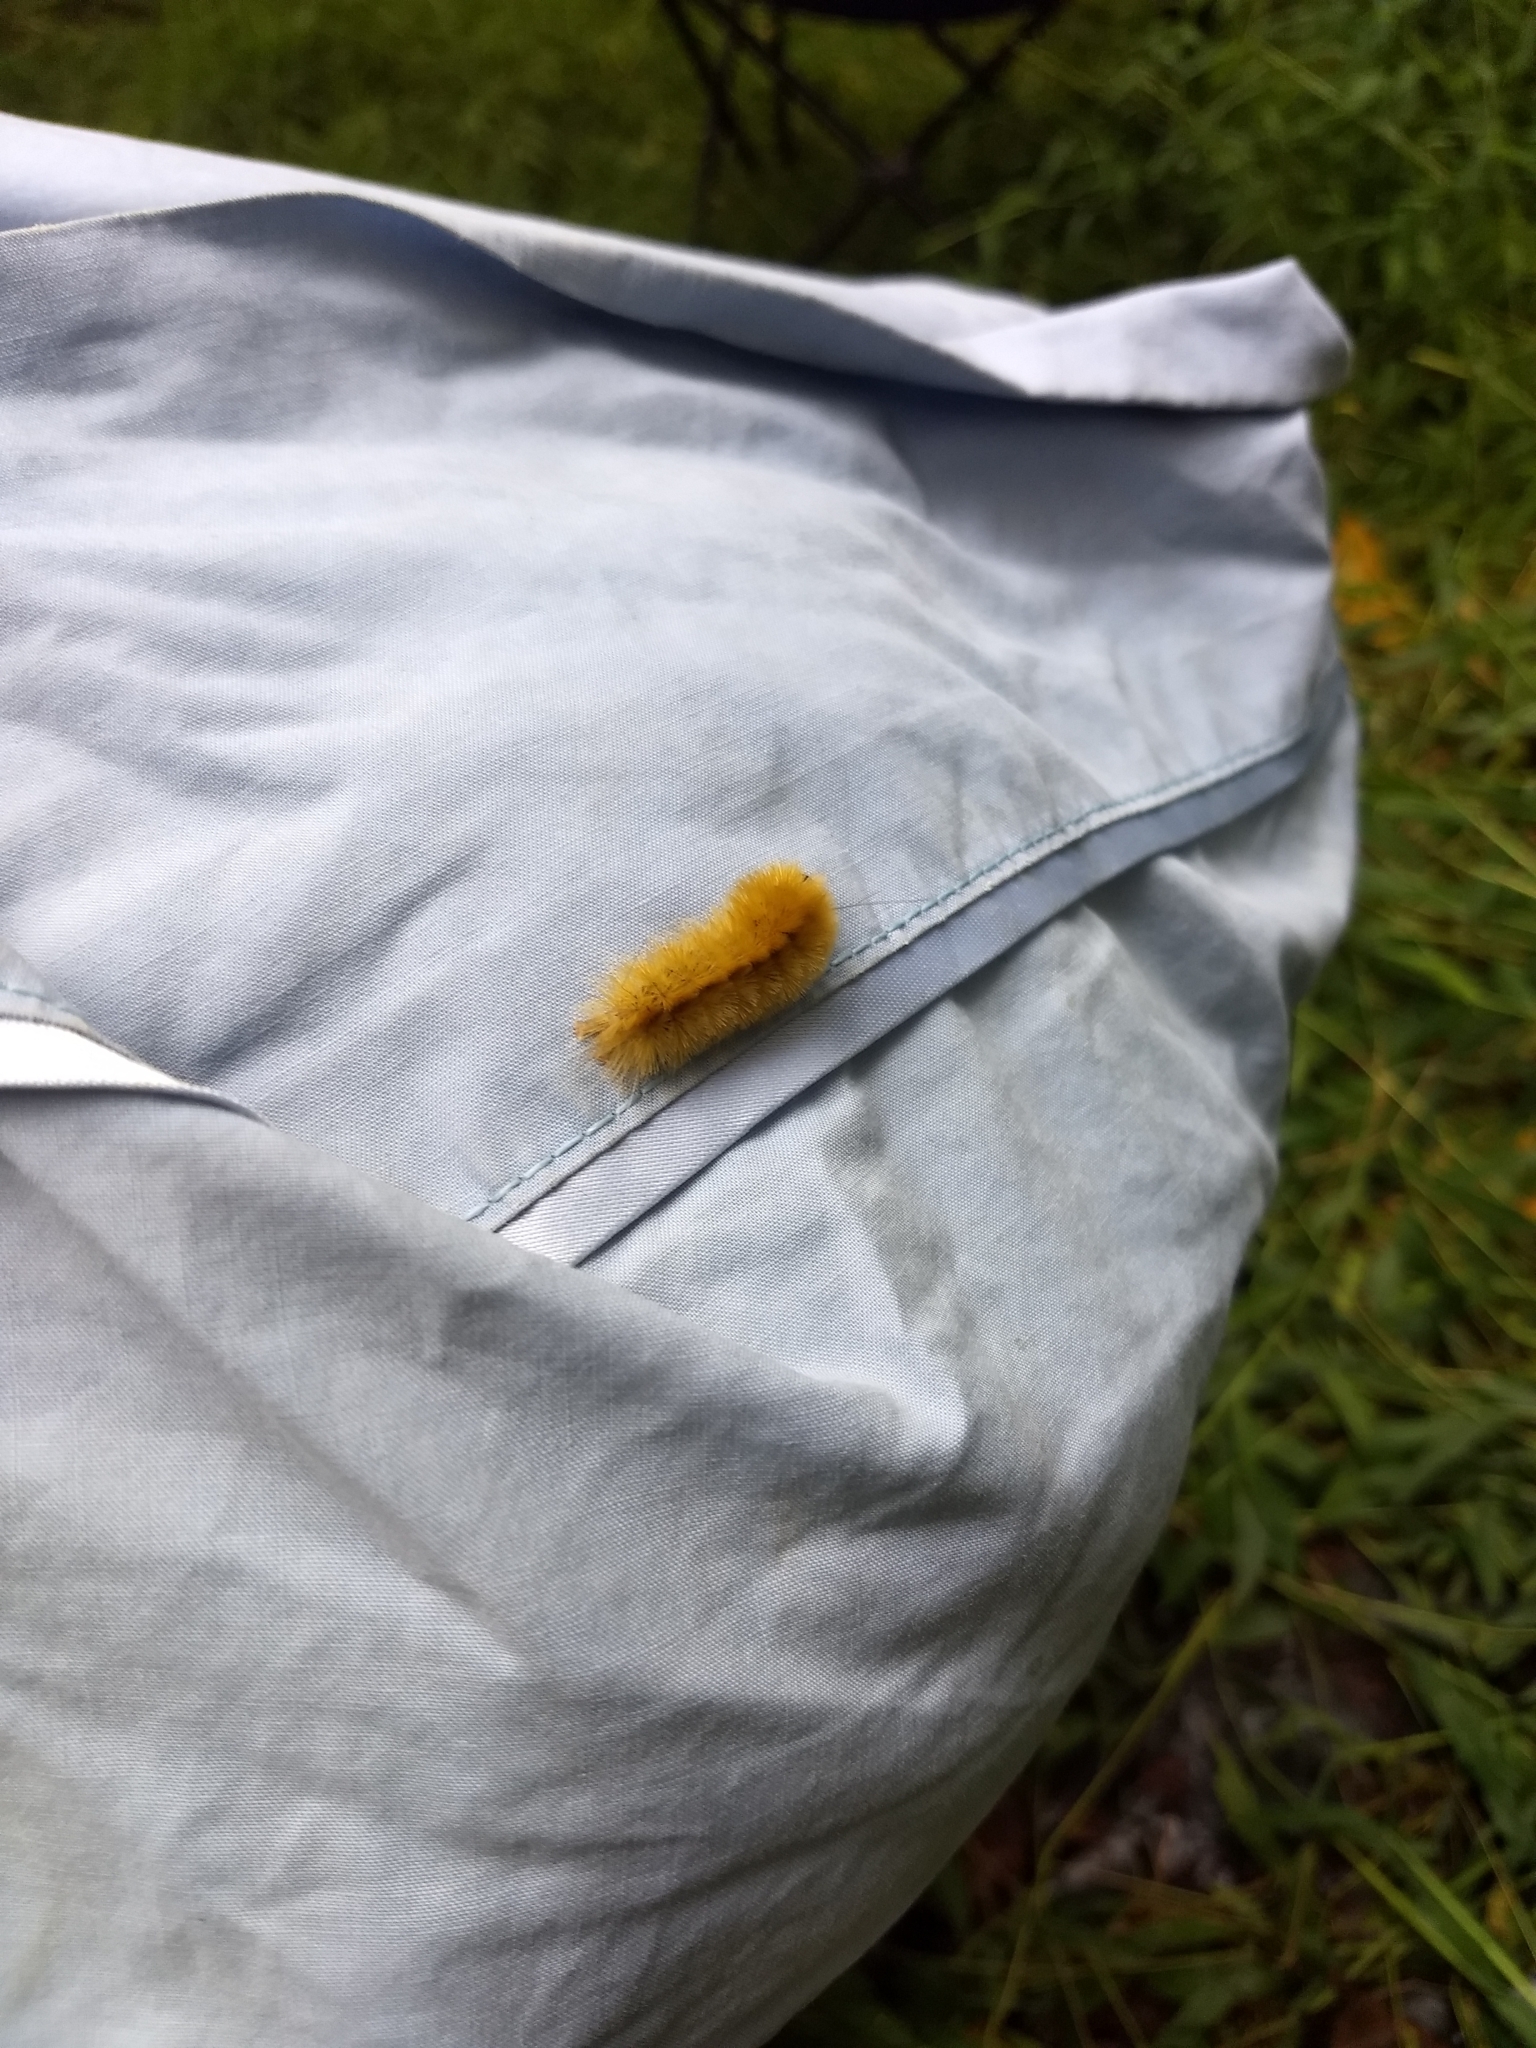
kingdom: Animalia
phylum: Arthropoda
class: Insecta
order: Lepidoptera
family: Erebidae
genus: Halysidota
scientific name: Halysidota tessellaris
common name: Banded tussock moth
